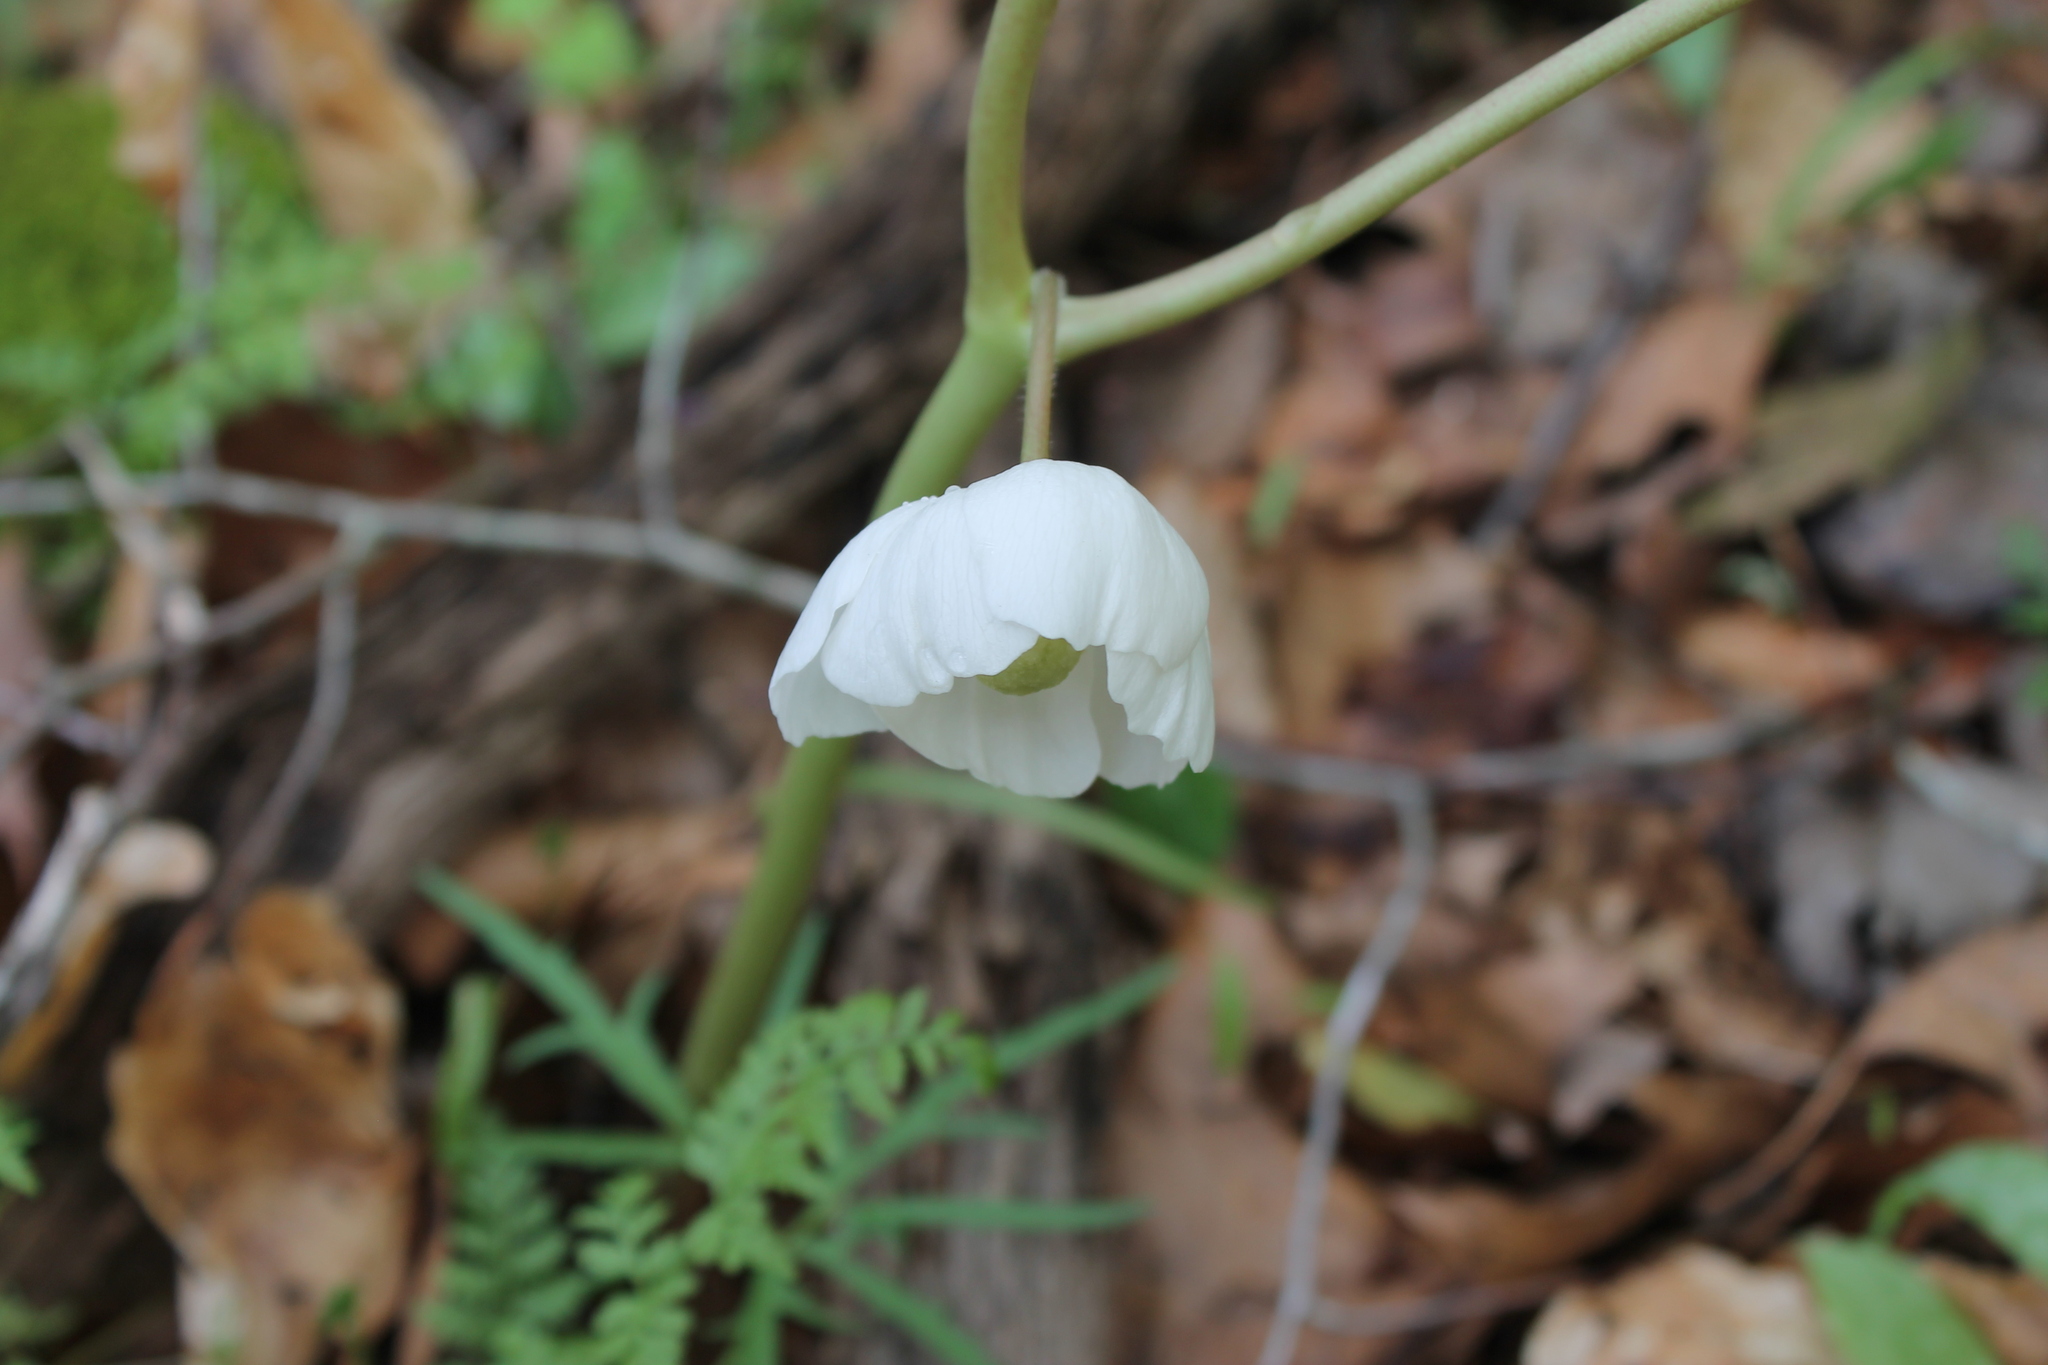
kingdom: Plantae
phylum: Tracheophyta
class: Magnoliopsida
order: Ranunculales
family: Berberidaceae
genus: Podophyllum
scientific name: Podophyllum peltatum
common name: Wild mandrake
